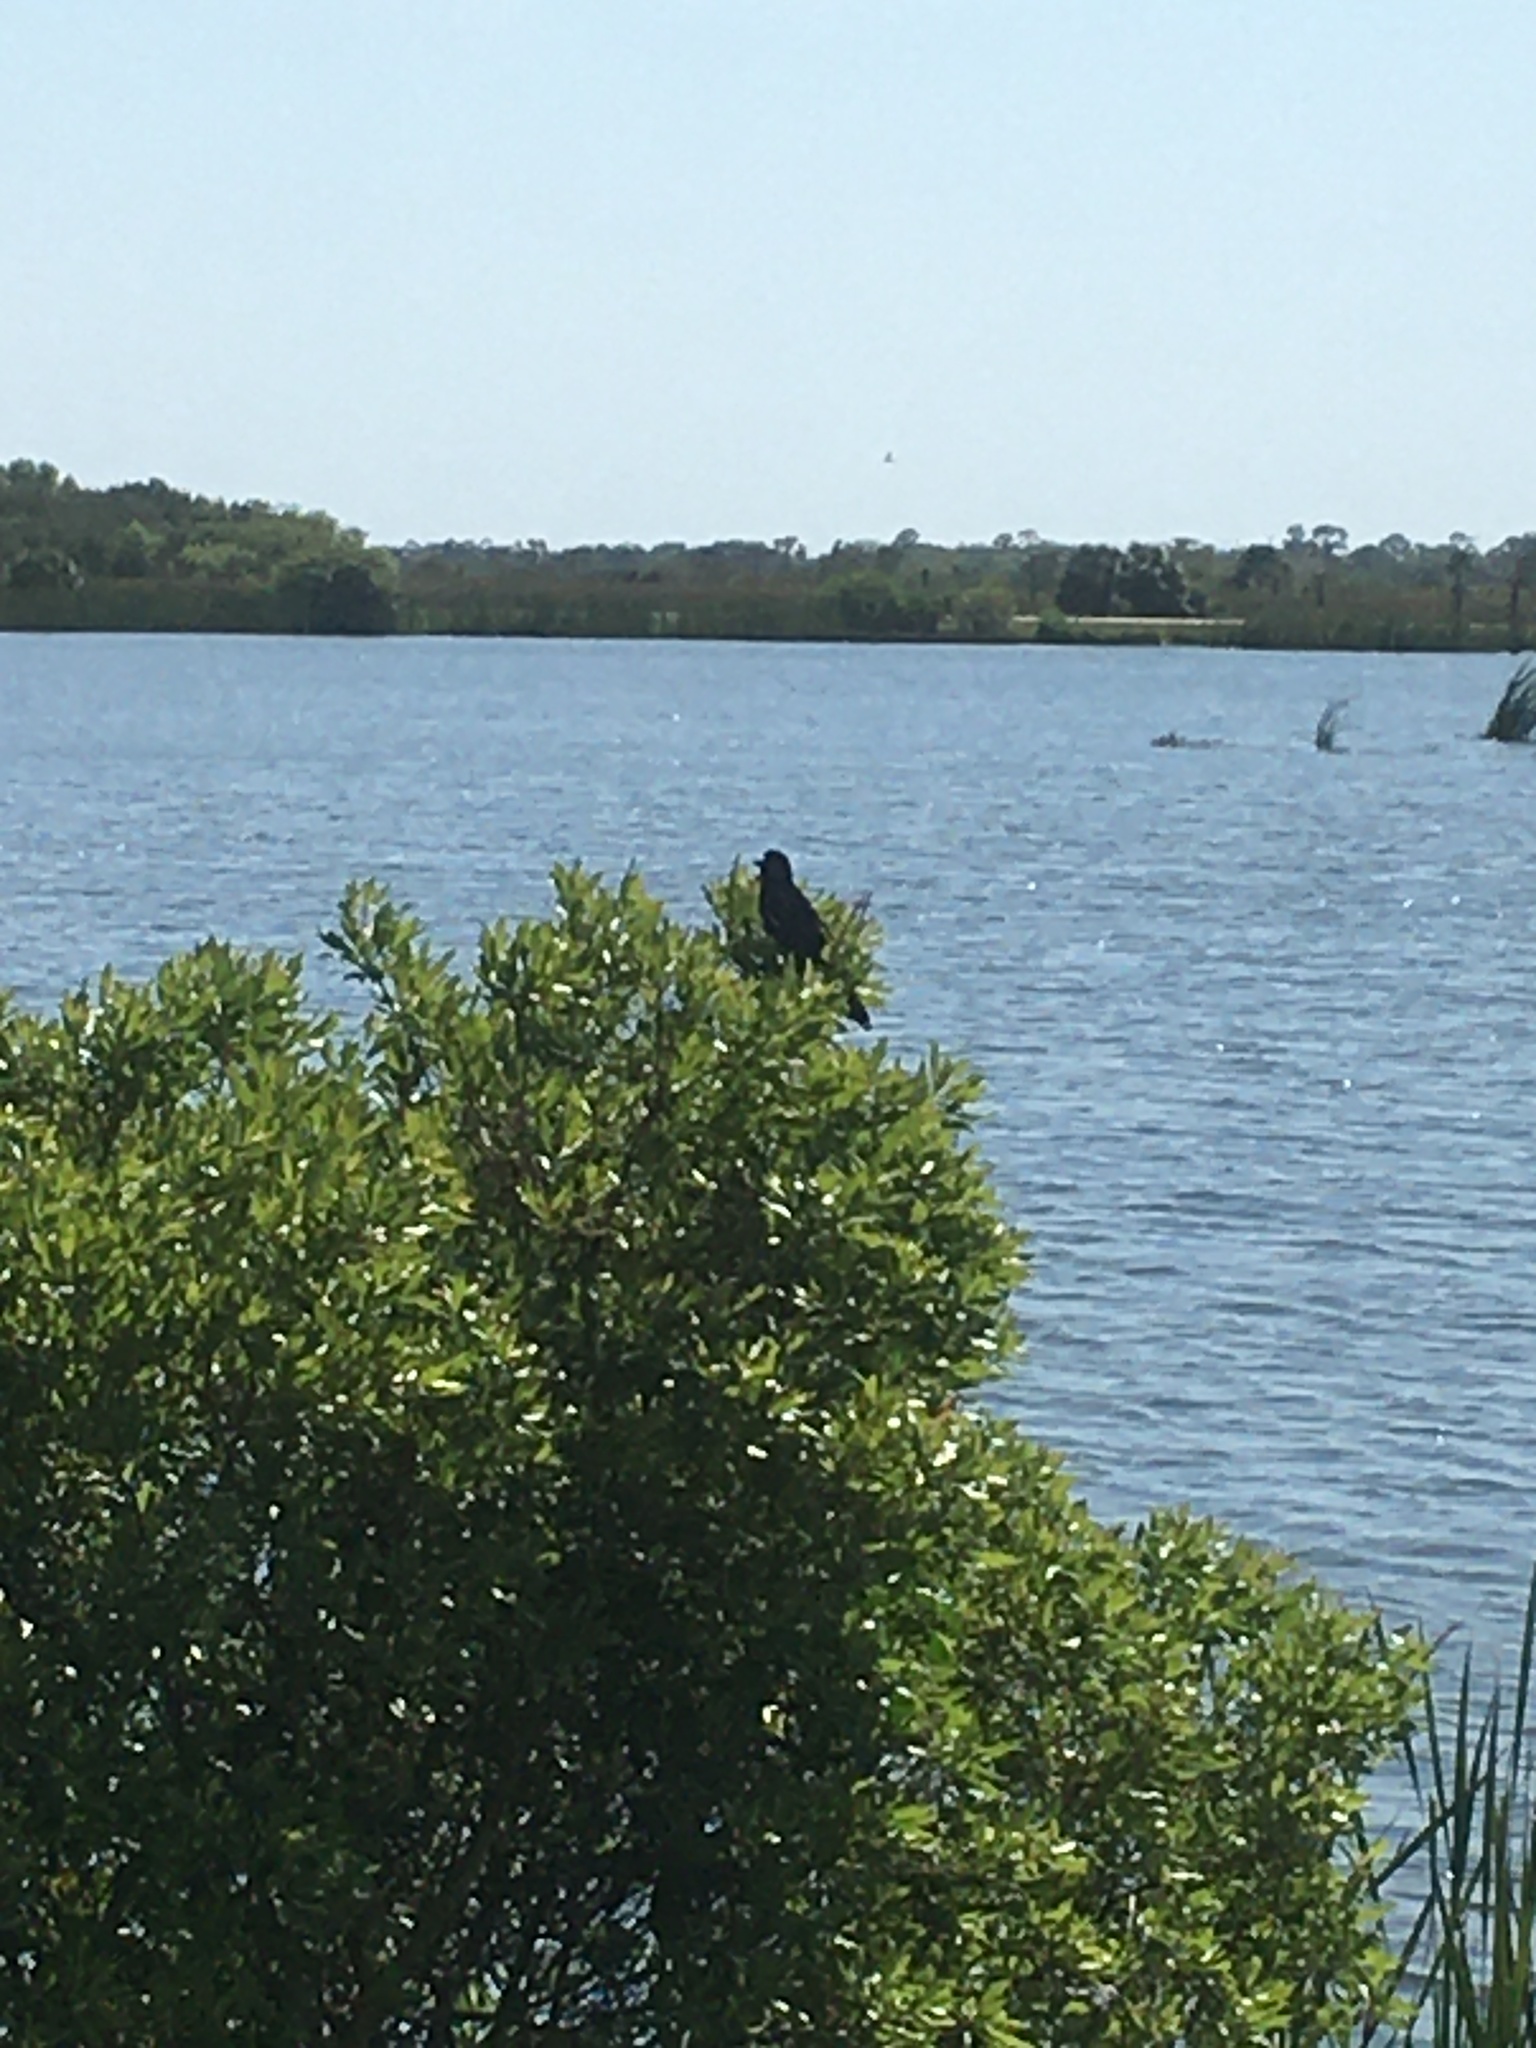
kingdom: Animalia
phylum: Chordata
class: Aves
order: Passeriformes
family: Icteridae
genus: Agelaius
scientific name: Agelaius phoeniceus
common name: Red-winged blackbird
